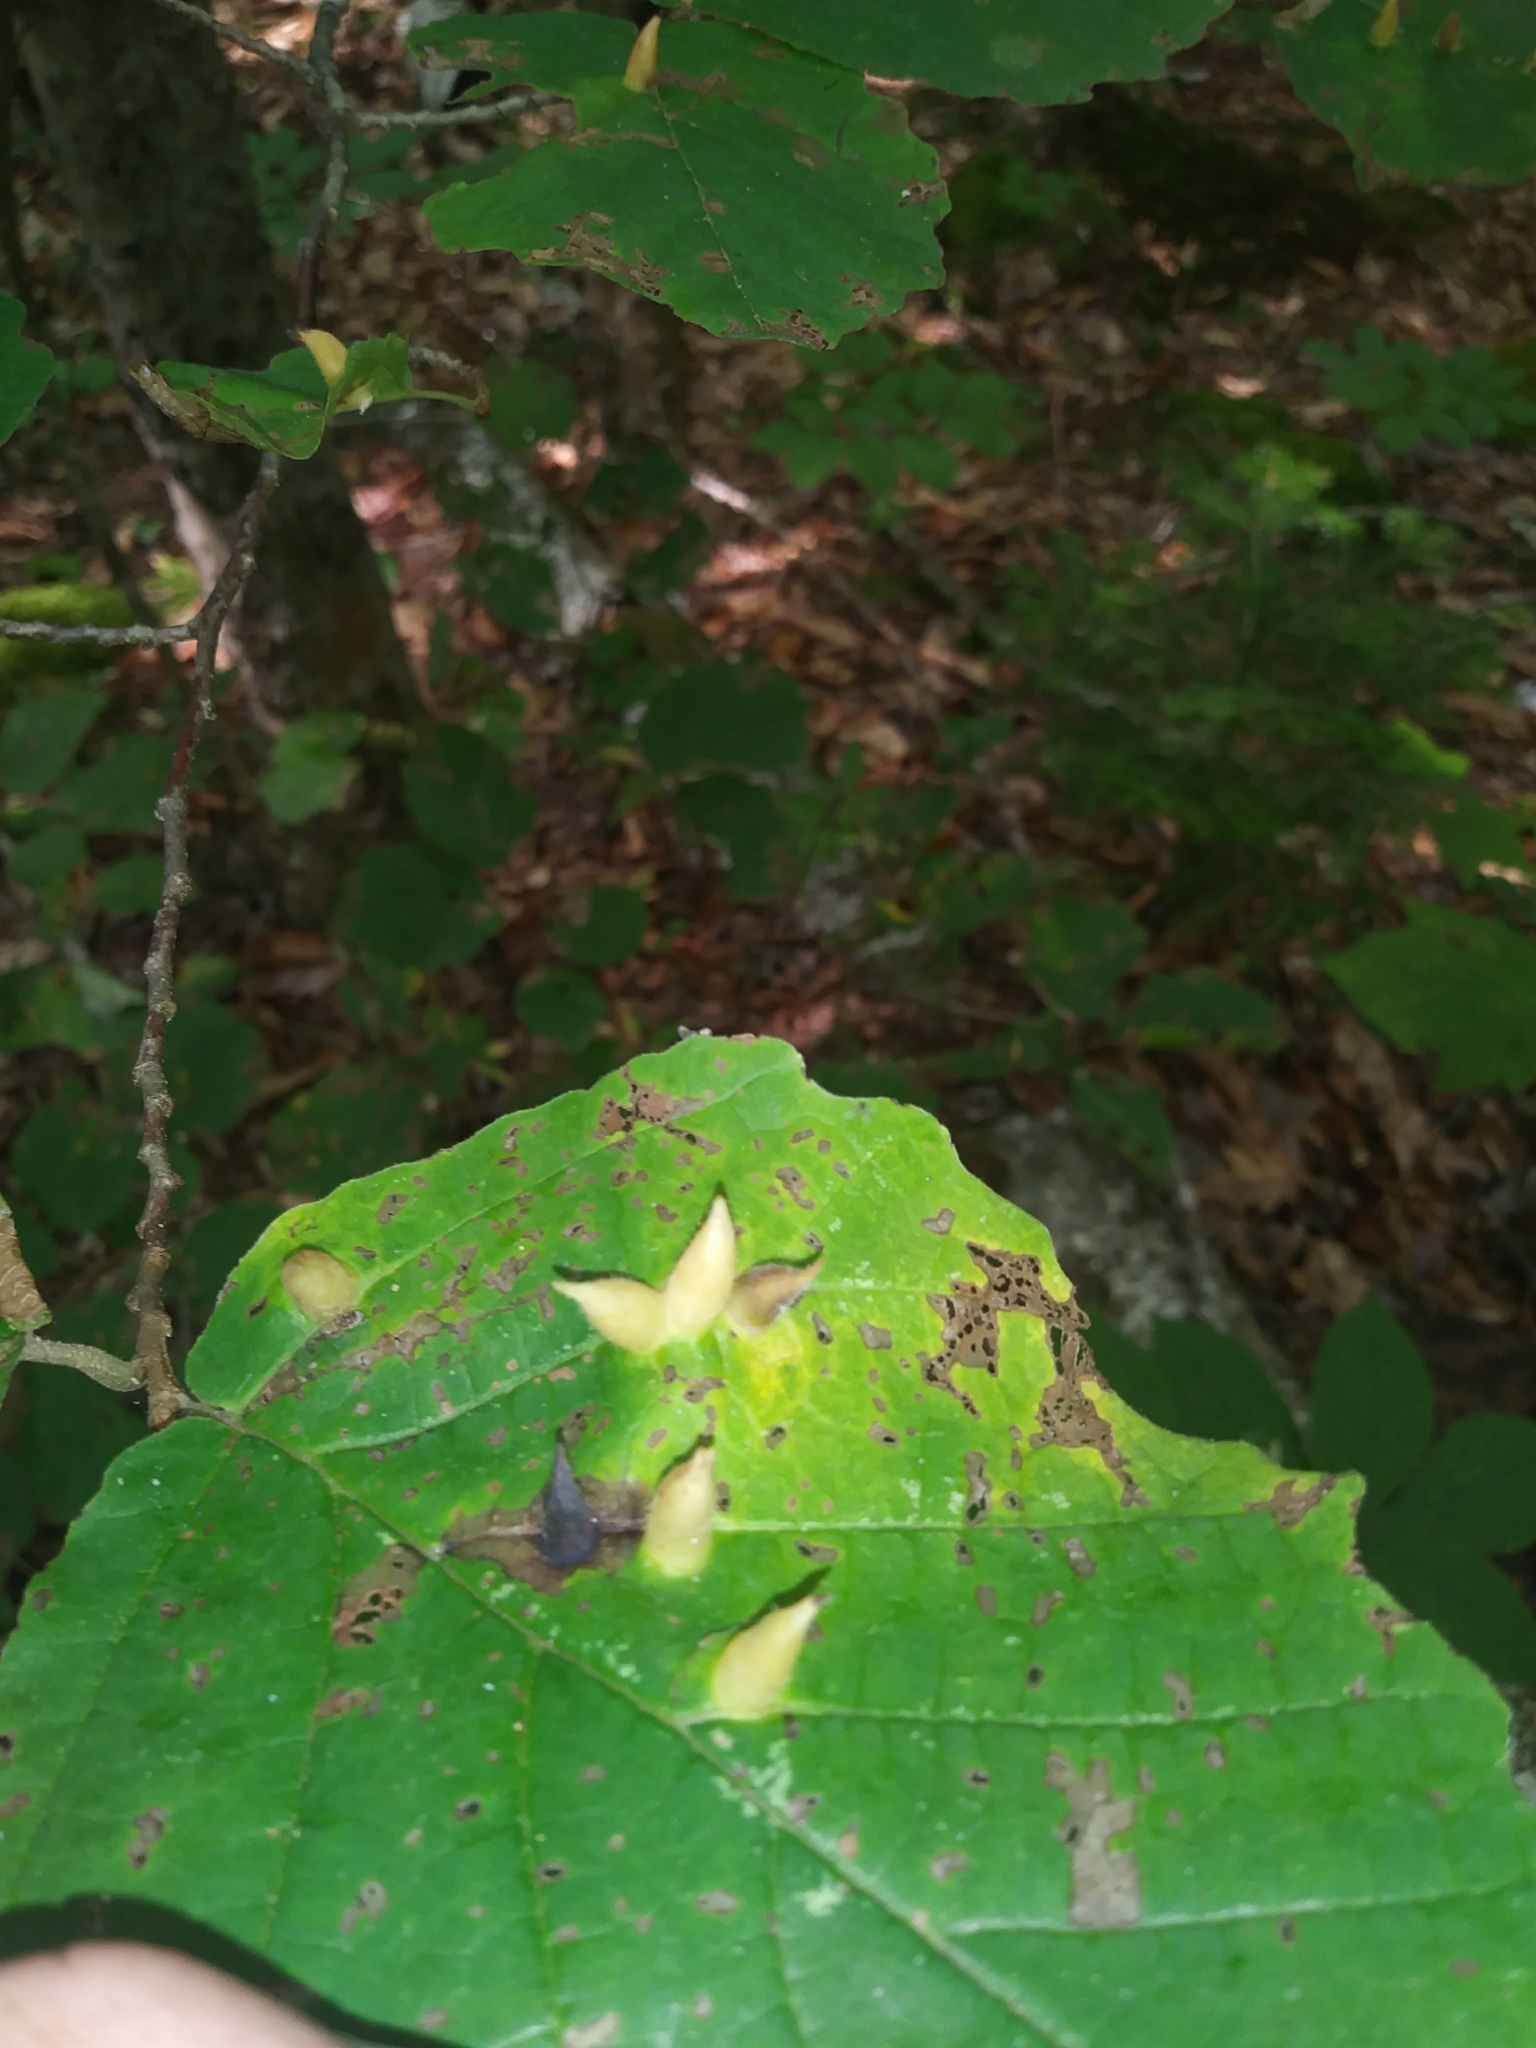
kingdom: Animalia
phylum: Arthropoda
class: Insecta
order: Hemiptera
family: Aphididae
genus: Hormaphis
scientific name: Hormaphis hamamelidis
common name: Witch-hazel cone gall aphid
